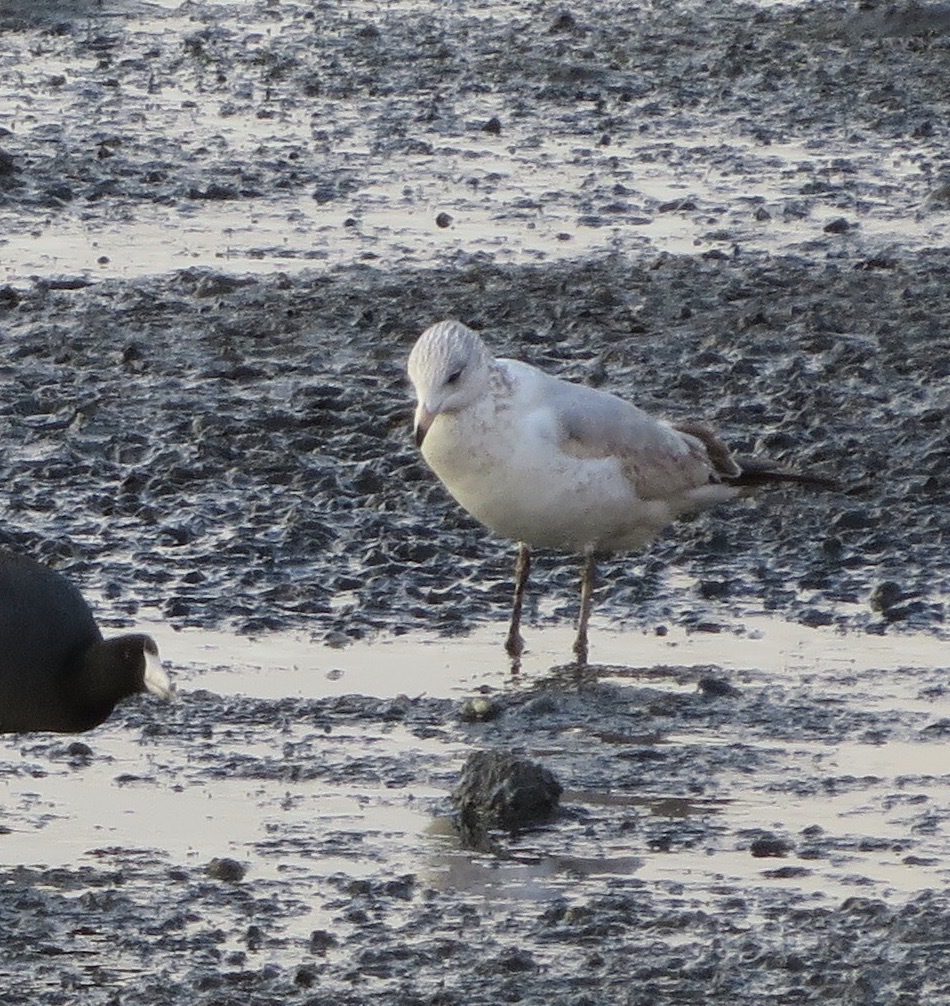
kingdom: Animalia
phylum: Chordata
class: Aves
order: Charadriiformes
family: Laridae
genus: Larus
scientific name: Larus delawarensis
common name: Ring-billed gull
